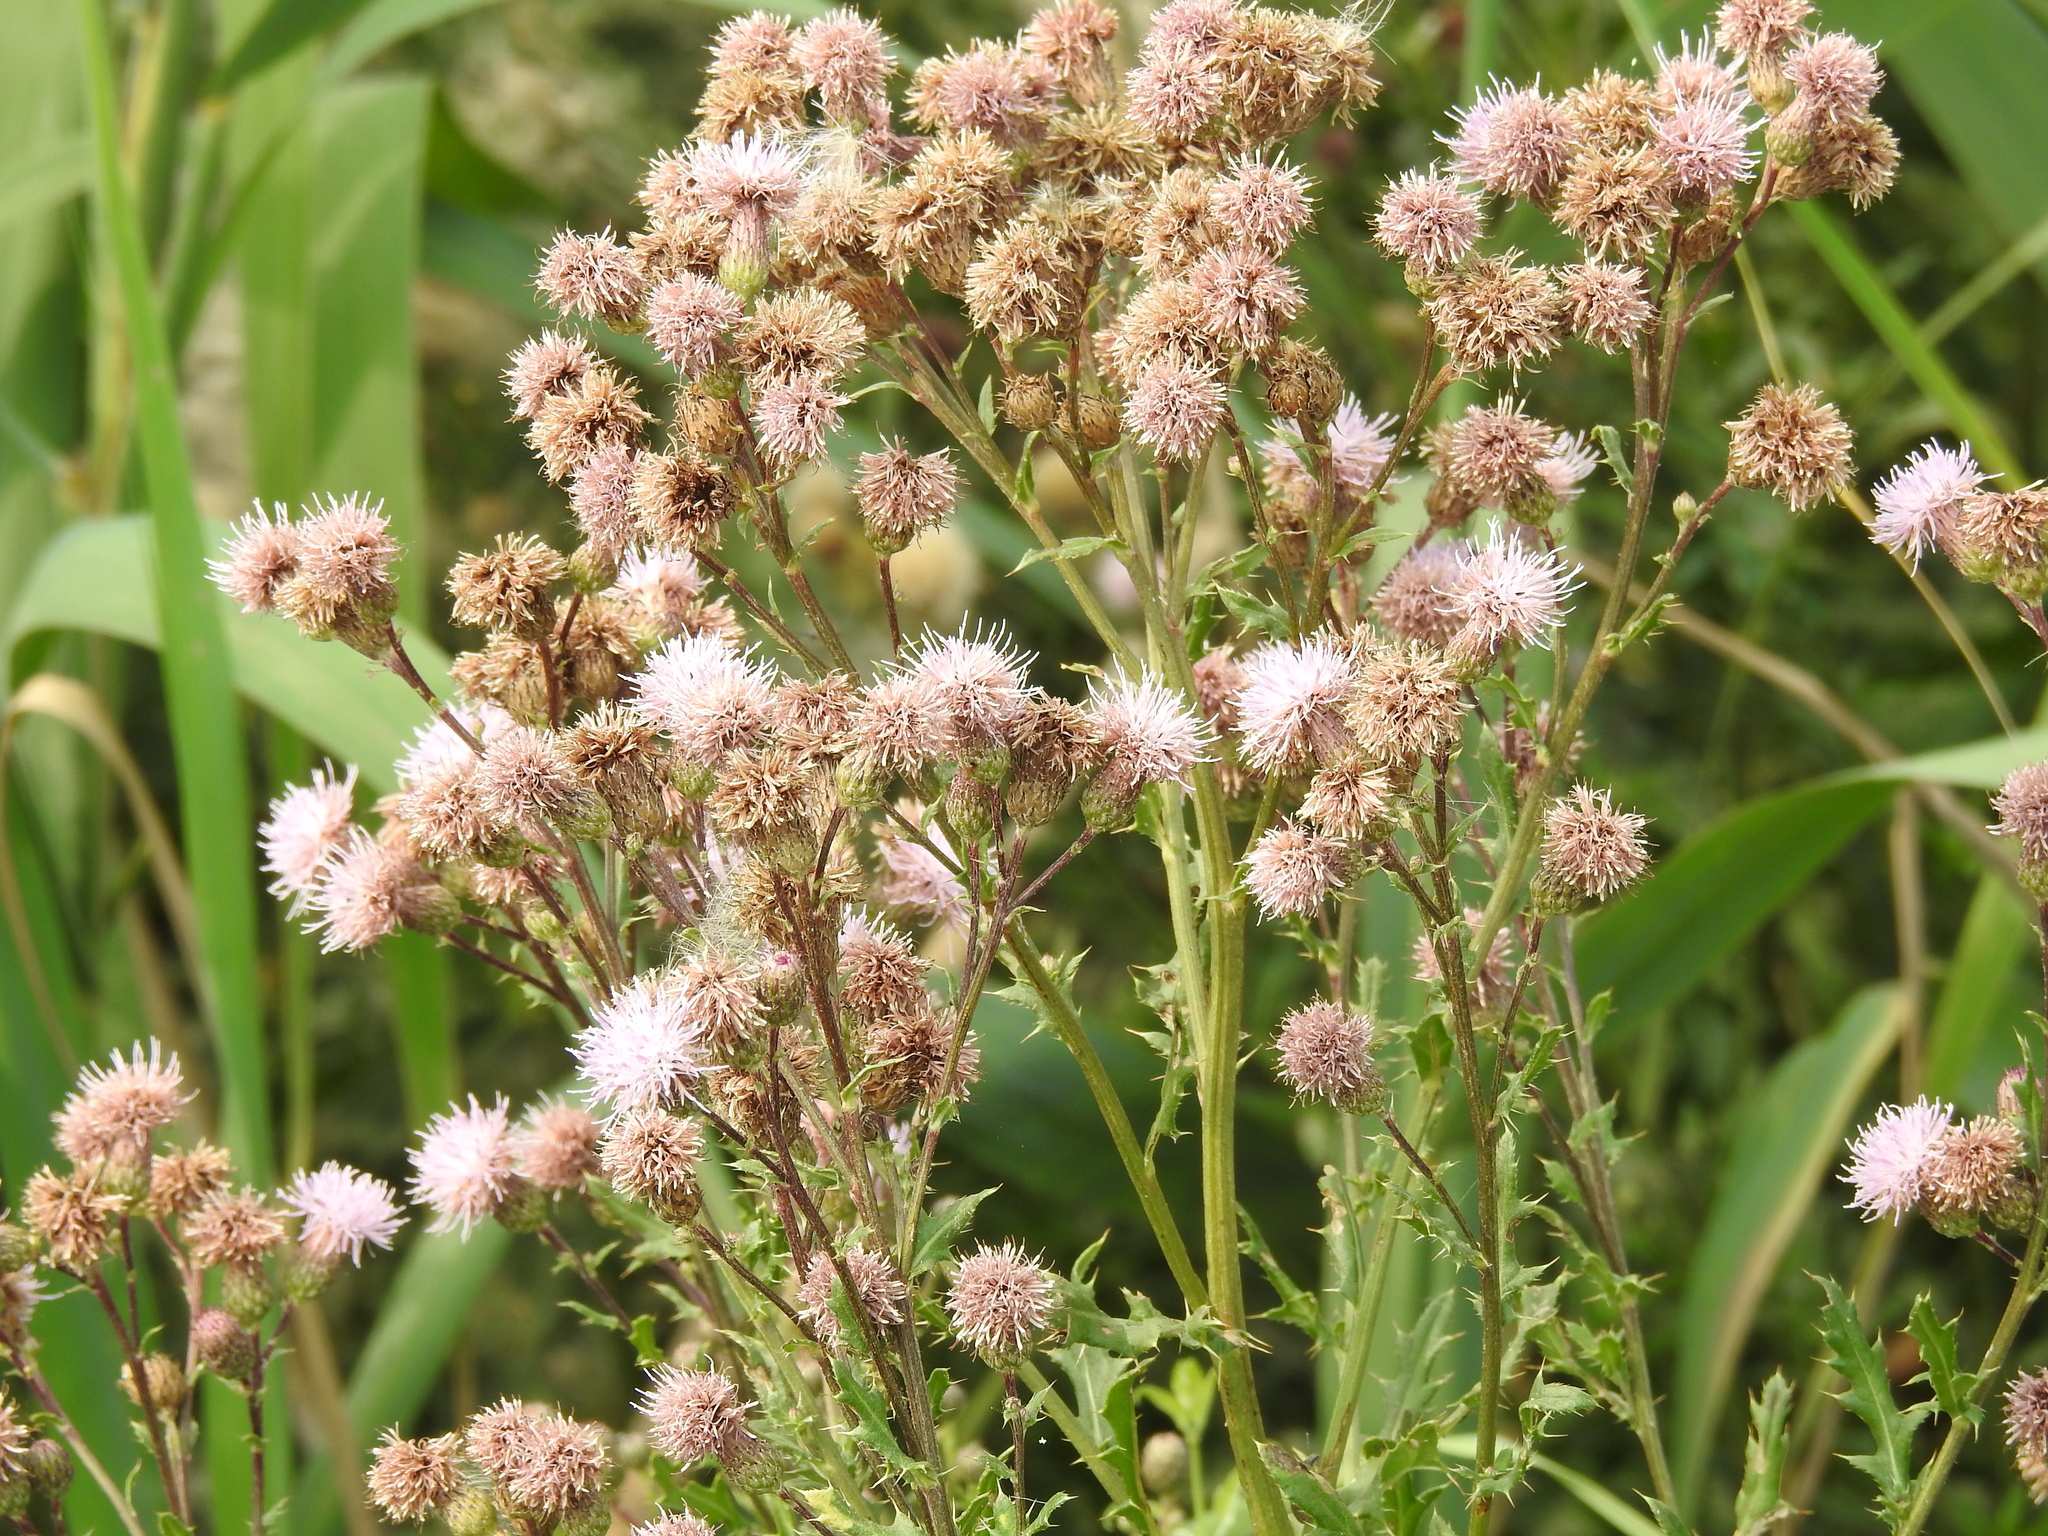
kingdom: Plantae
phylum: Tracheophyta
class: Magnoliopsida
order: Asterales
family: Asteraceae
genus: Cirsium
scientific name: Cirsium arvense
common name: Creeping thistle
